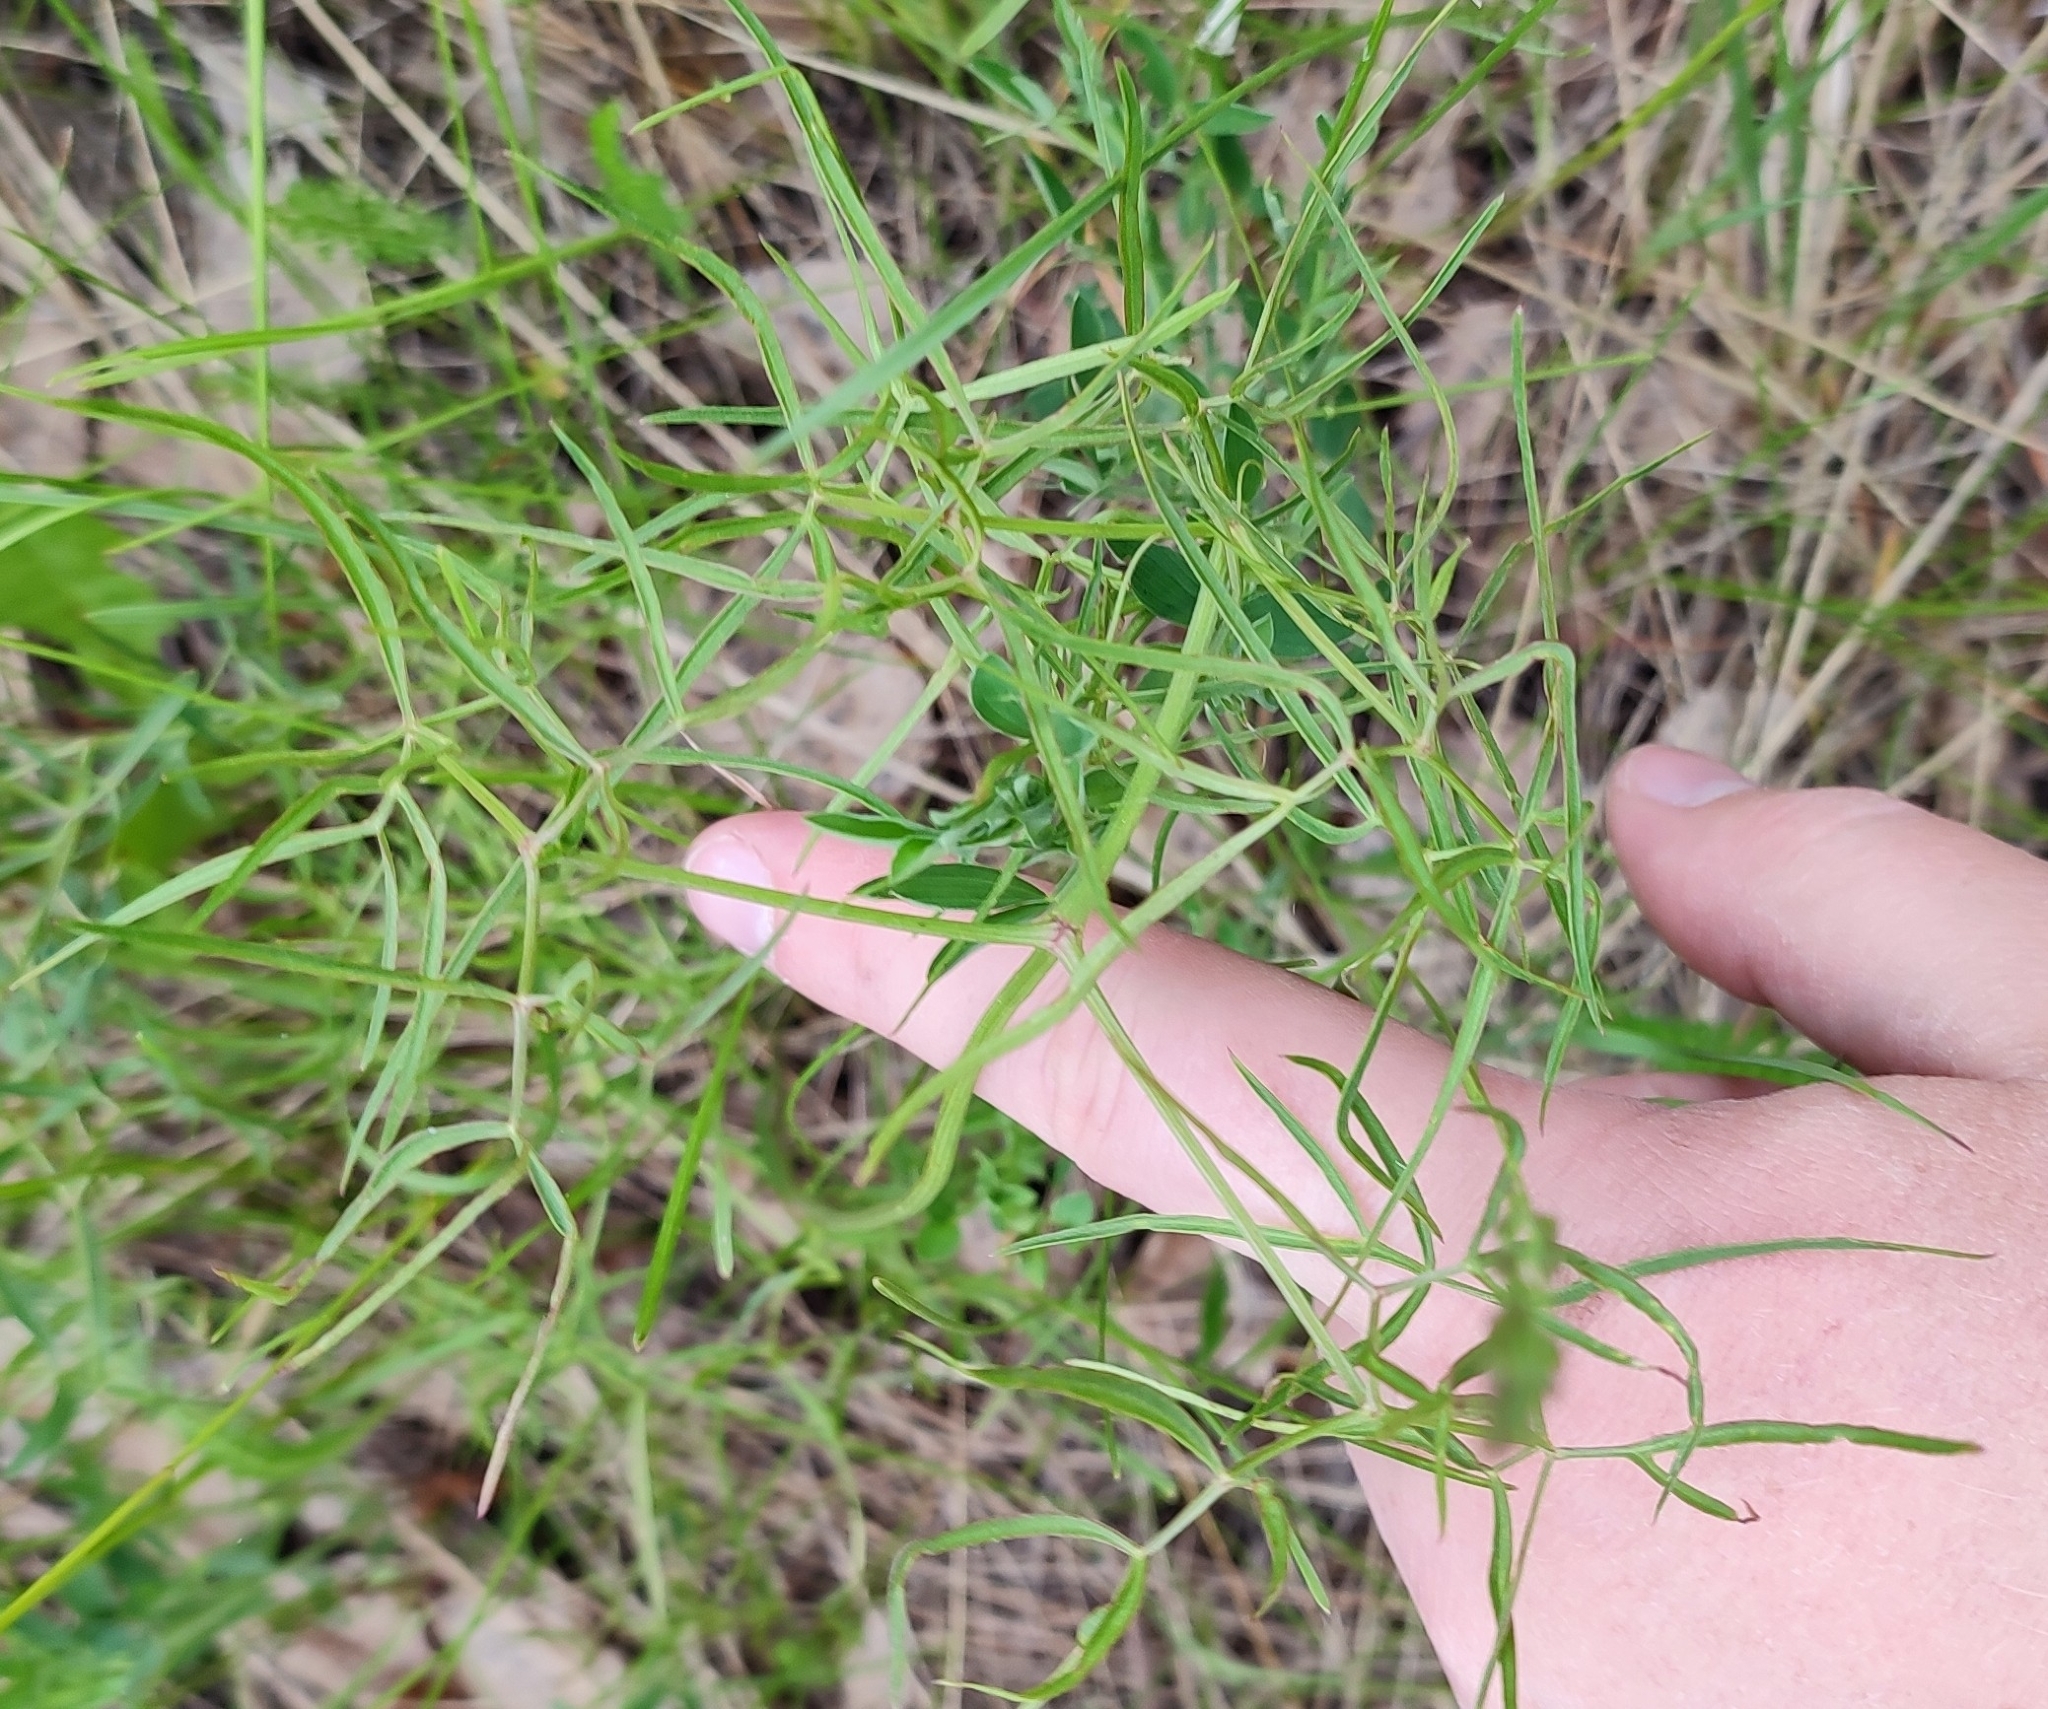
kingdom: Plantae
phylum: Tracheophyta
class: Magnoliopsida
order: Apiales
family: Apiaceae
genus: Cenolophium
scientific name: Cenolophium fischeri
